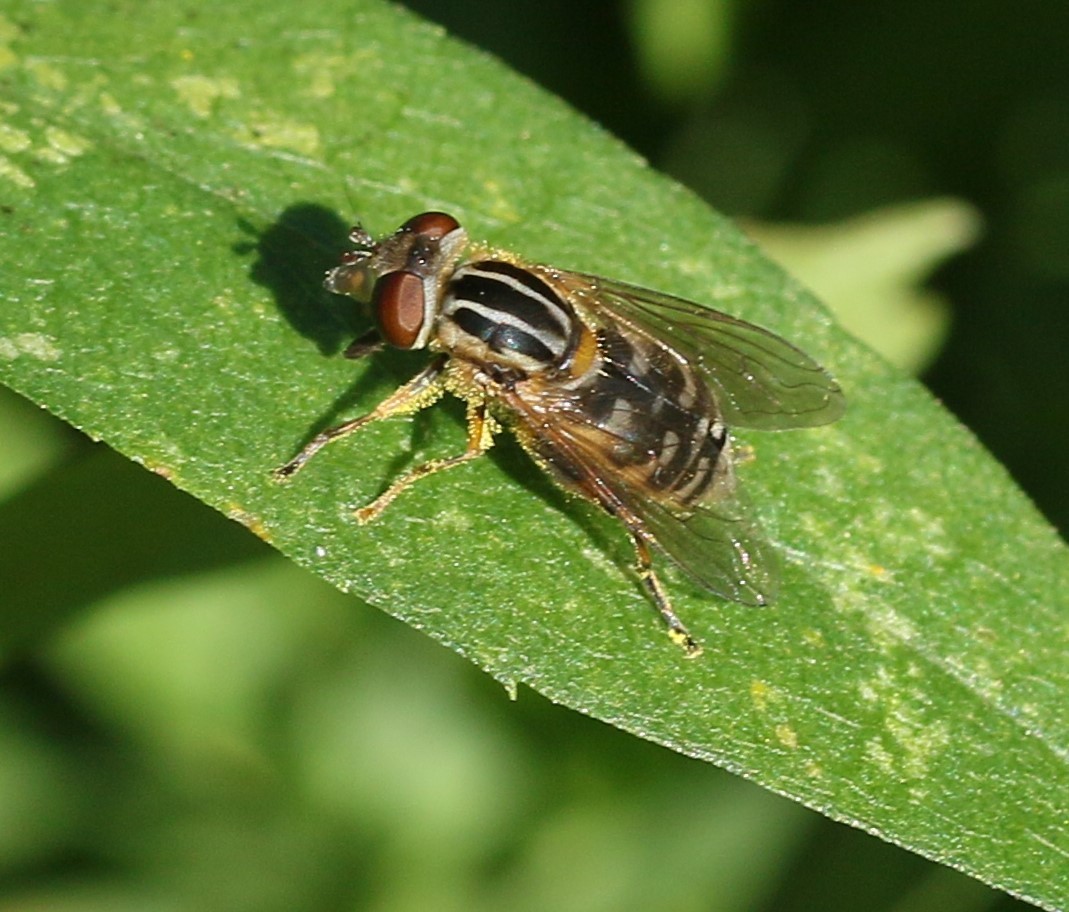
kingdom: Animalia
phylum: Arthropoda
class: Insecta
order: Diptera
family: Syrphidae
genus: Eurimyia
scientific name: Eurimyia stipatus
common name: Long-nosed swamp fly
